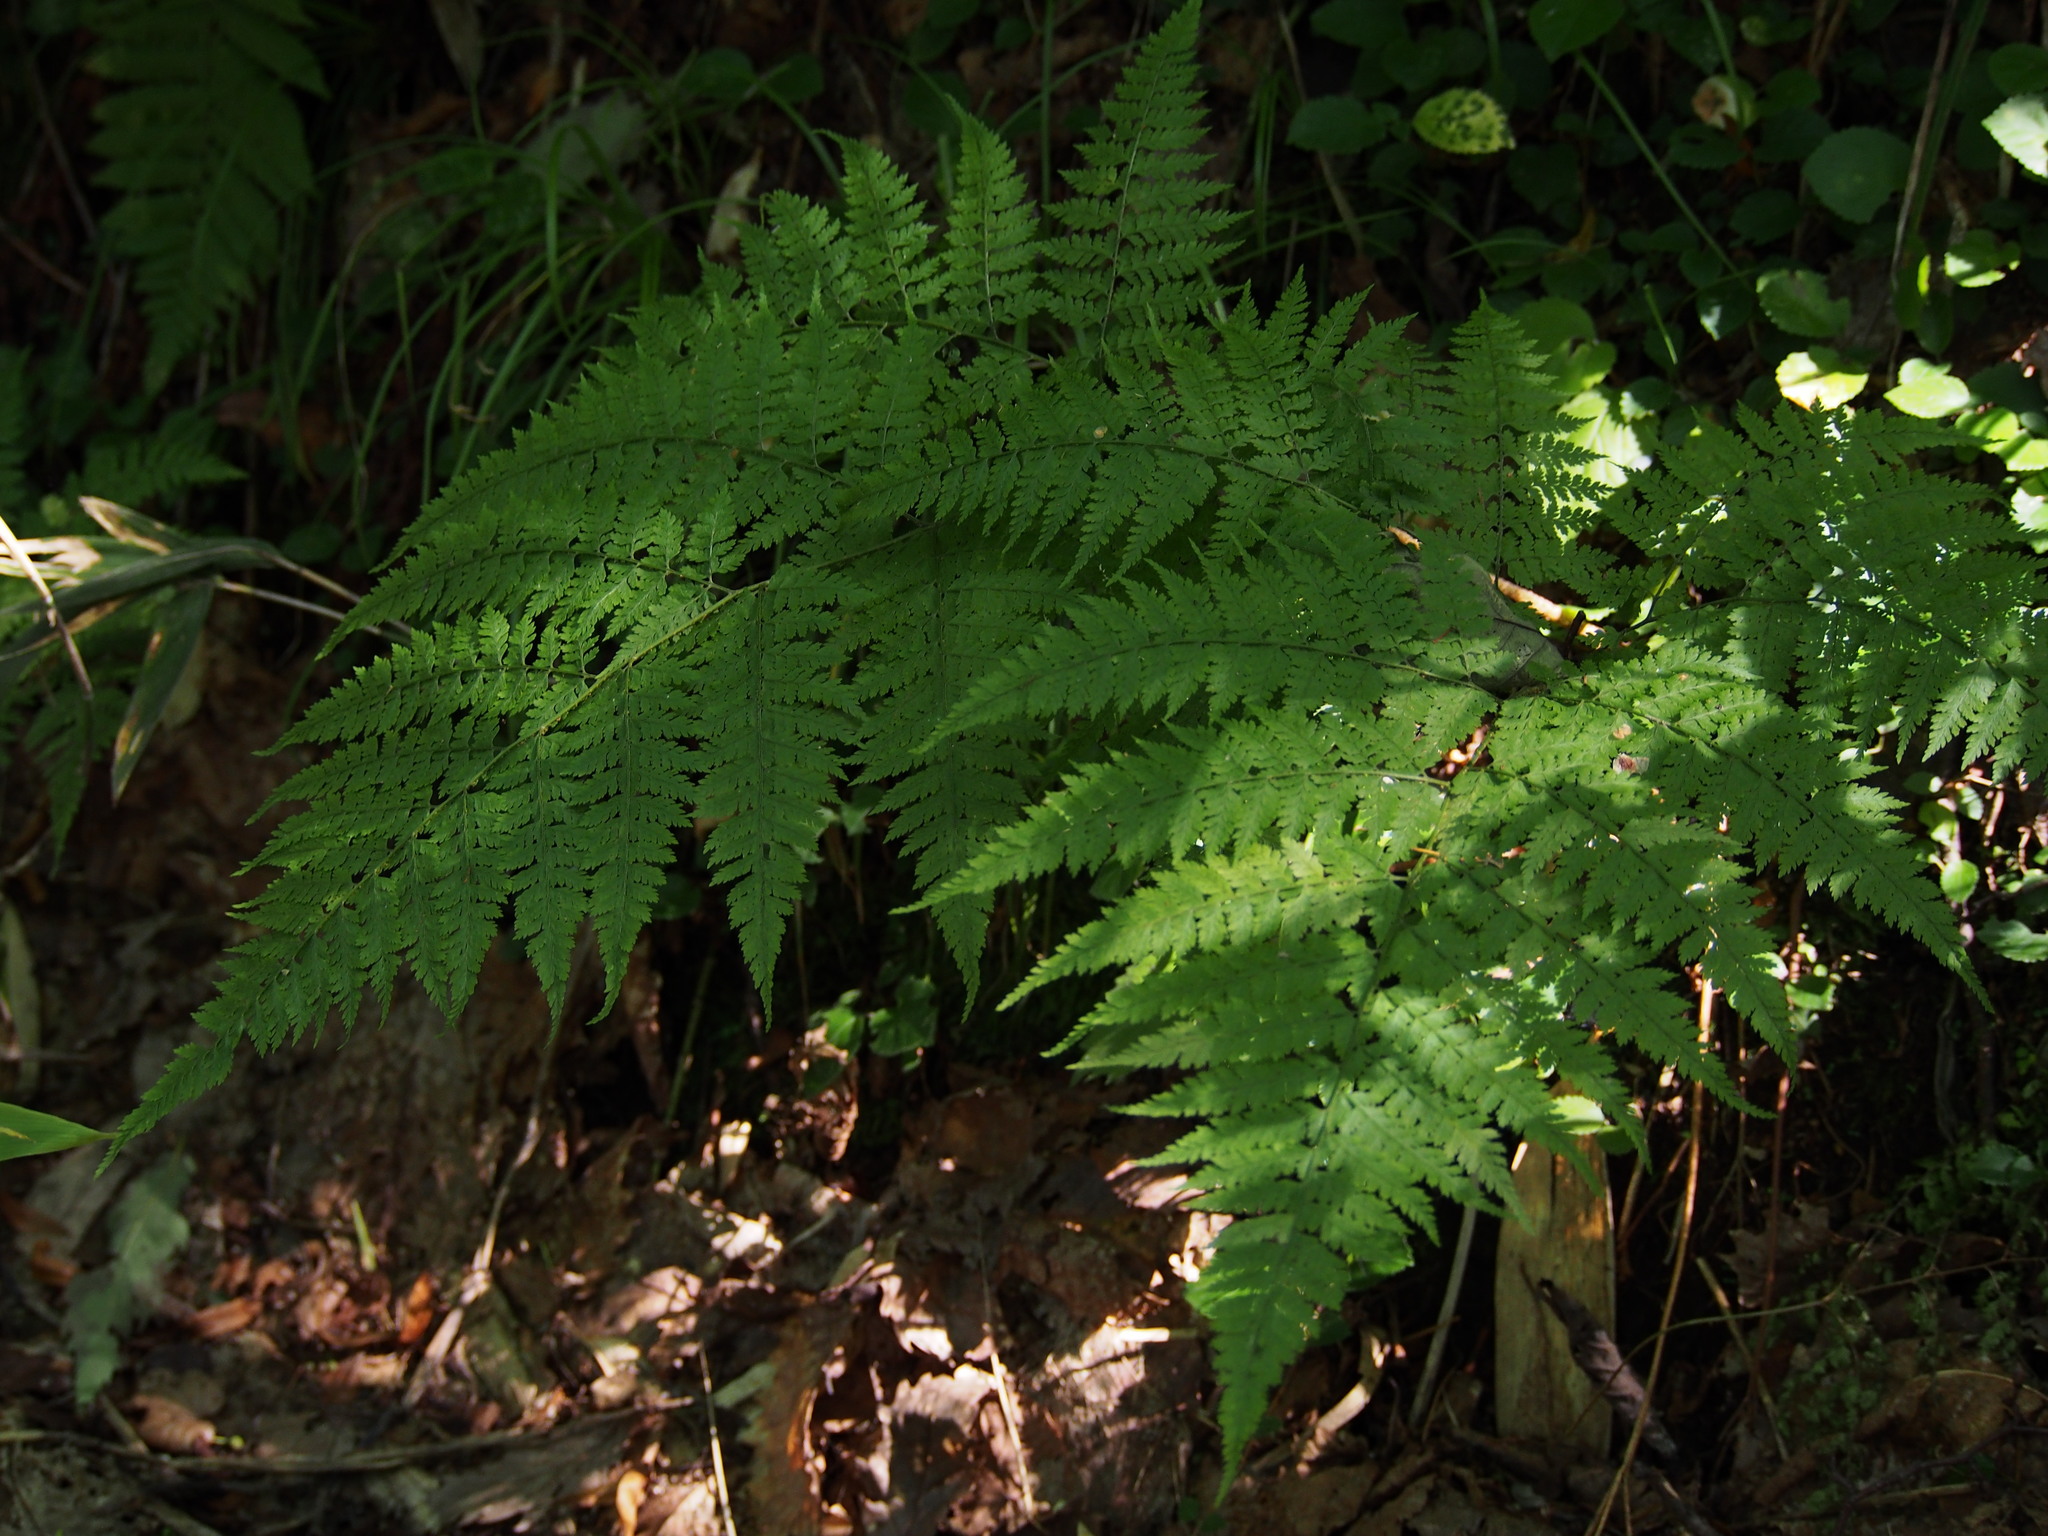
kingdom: Plantae
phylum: Tracheophyta
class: Polypodiopsida
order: Polypodiales
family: Dryopteridaceae
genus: Arachniodes
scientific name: Arachniodes standishii
